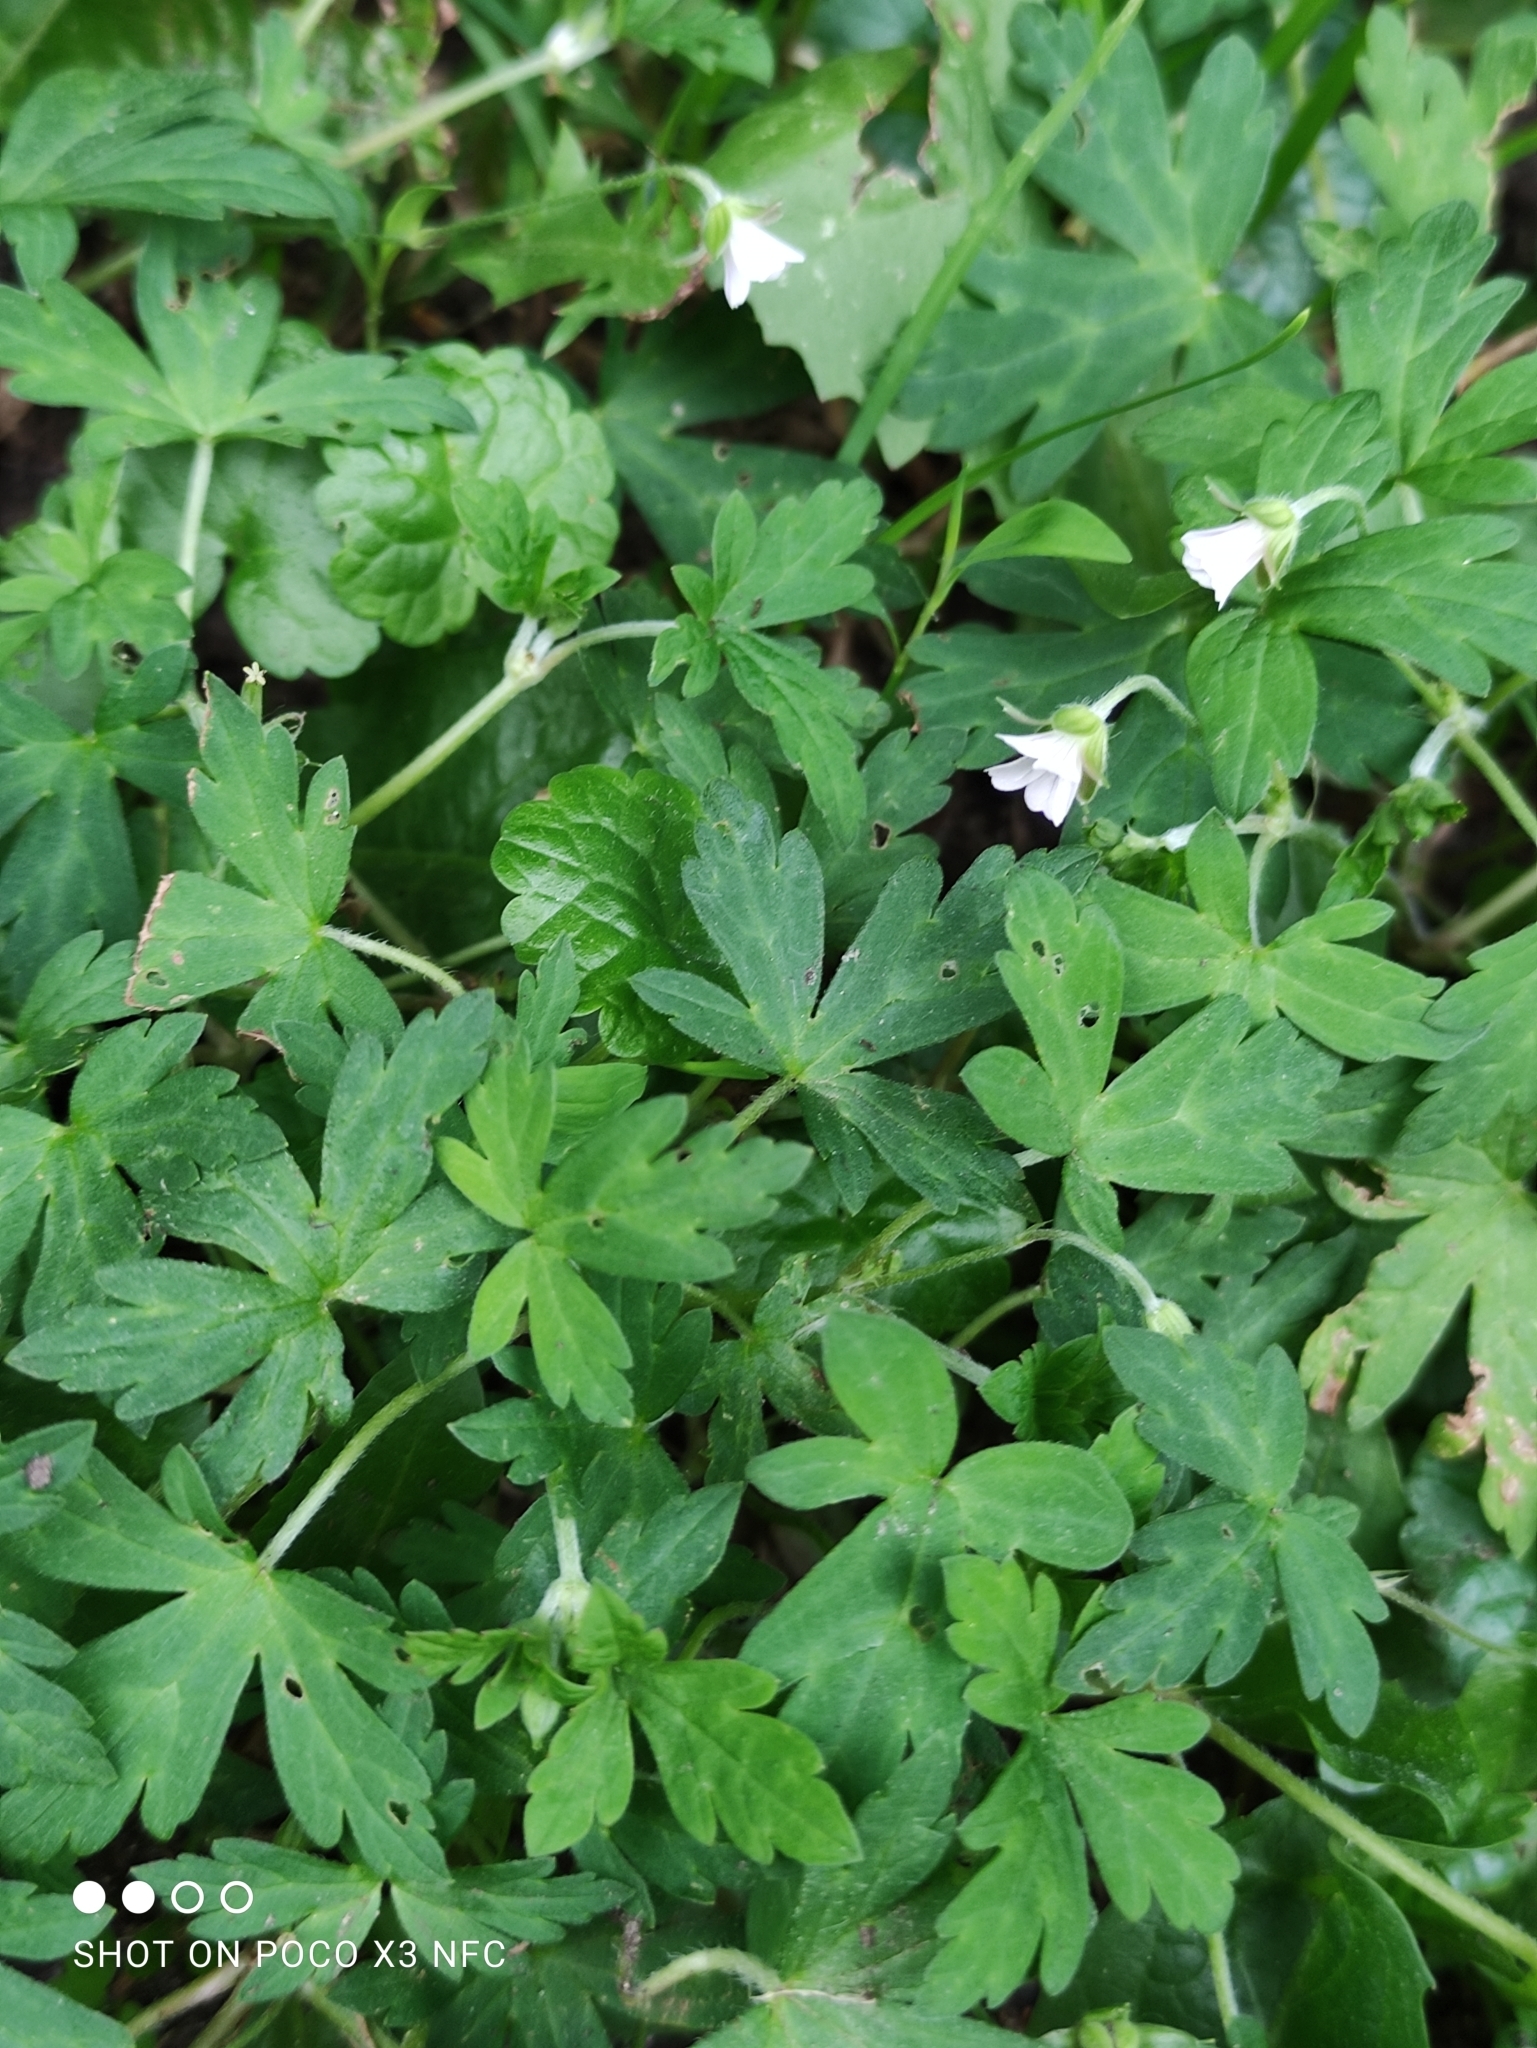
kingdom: Plantae
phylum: Tracheophyta
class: Magnoliopsida
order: Geraniales
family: Geraniaceae
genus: Geranium
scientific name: Geranium sibiricum
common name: Siberian crane's-bill
